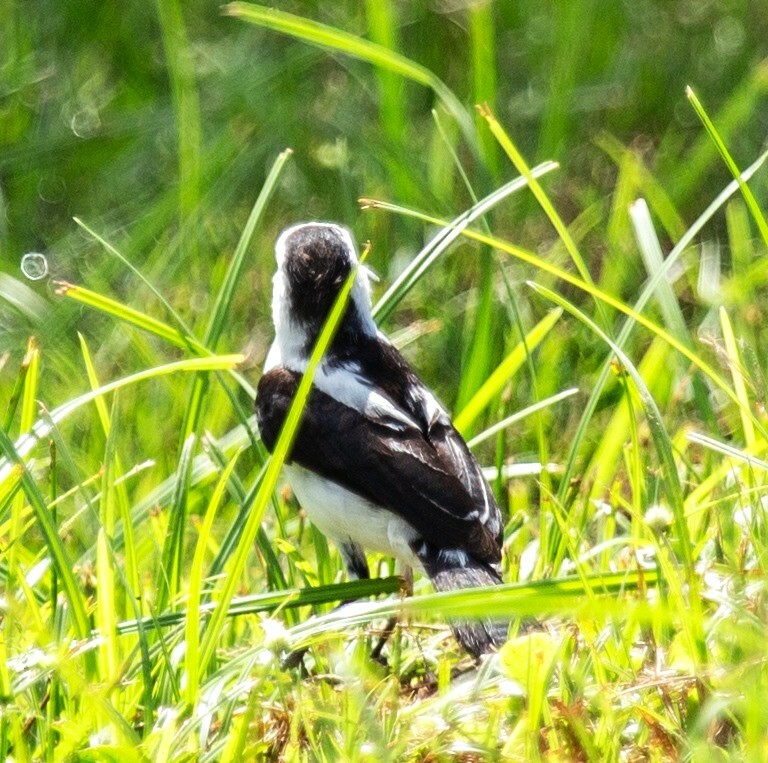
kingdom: Animalia
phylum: Chordata
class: Aves
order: Passeriformes
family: Tyrannidae
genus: Fluvicola
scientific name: Fluvicola pica
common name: Pied water-tyrant
